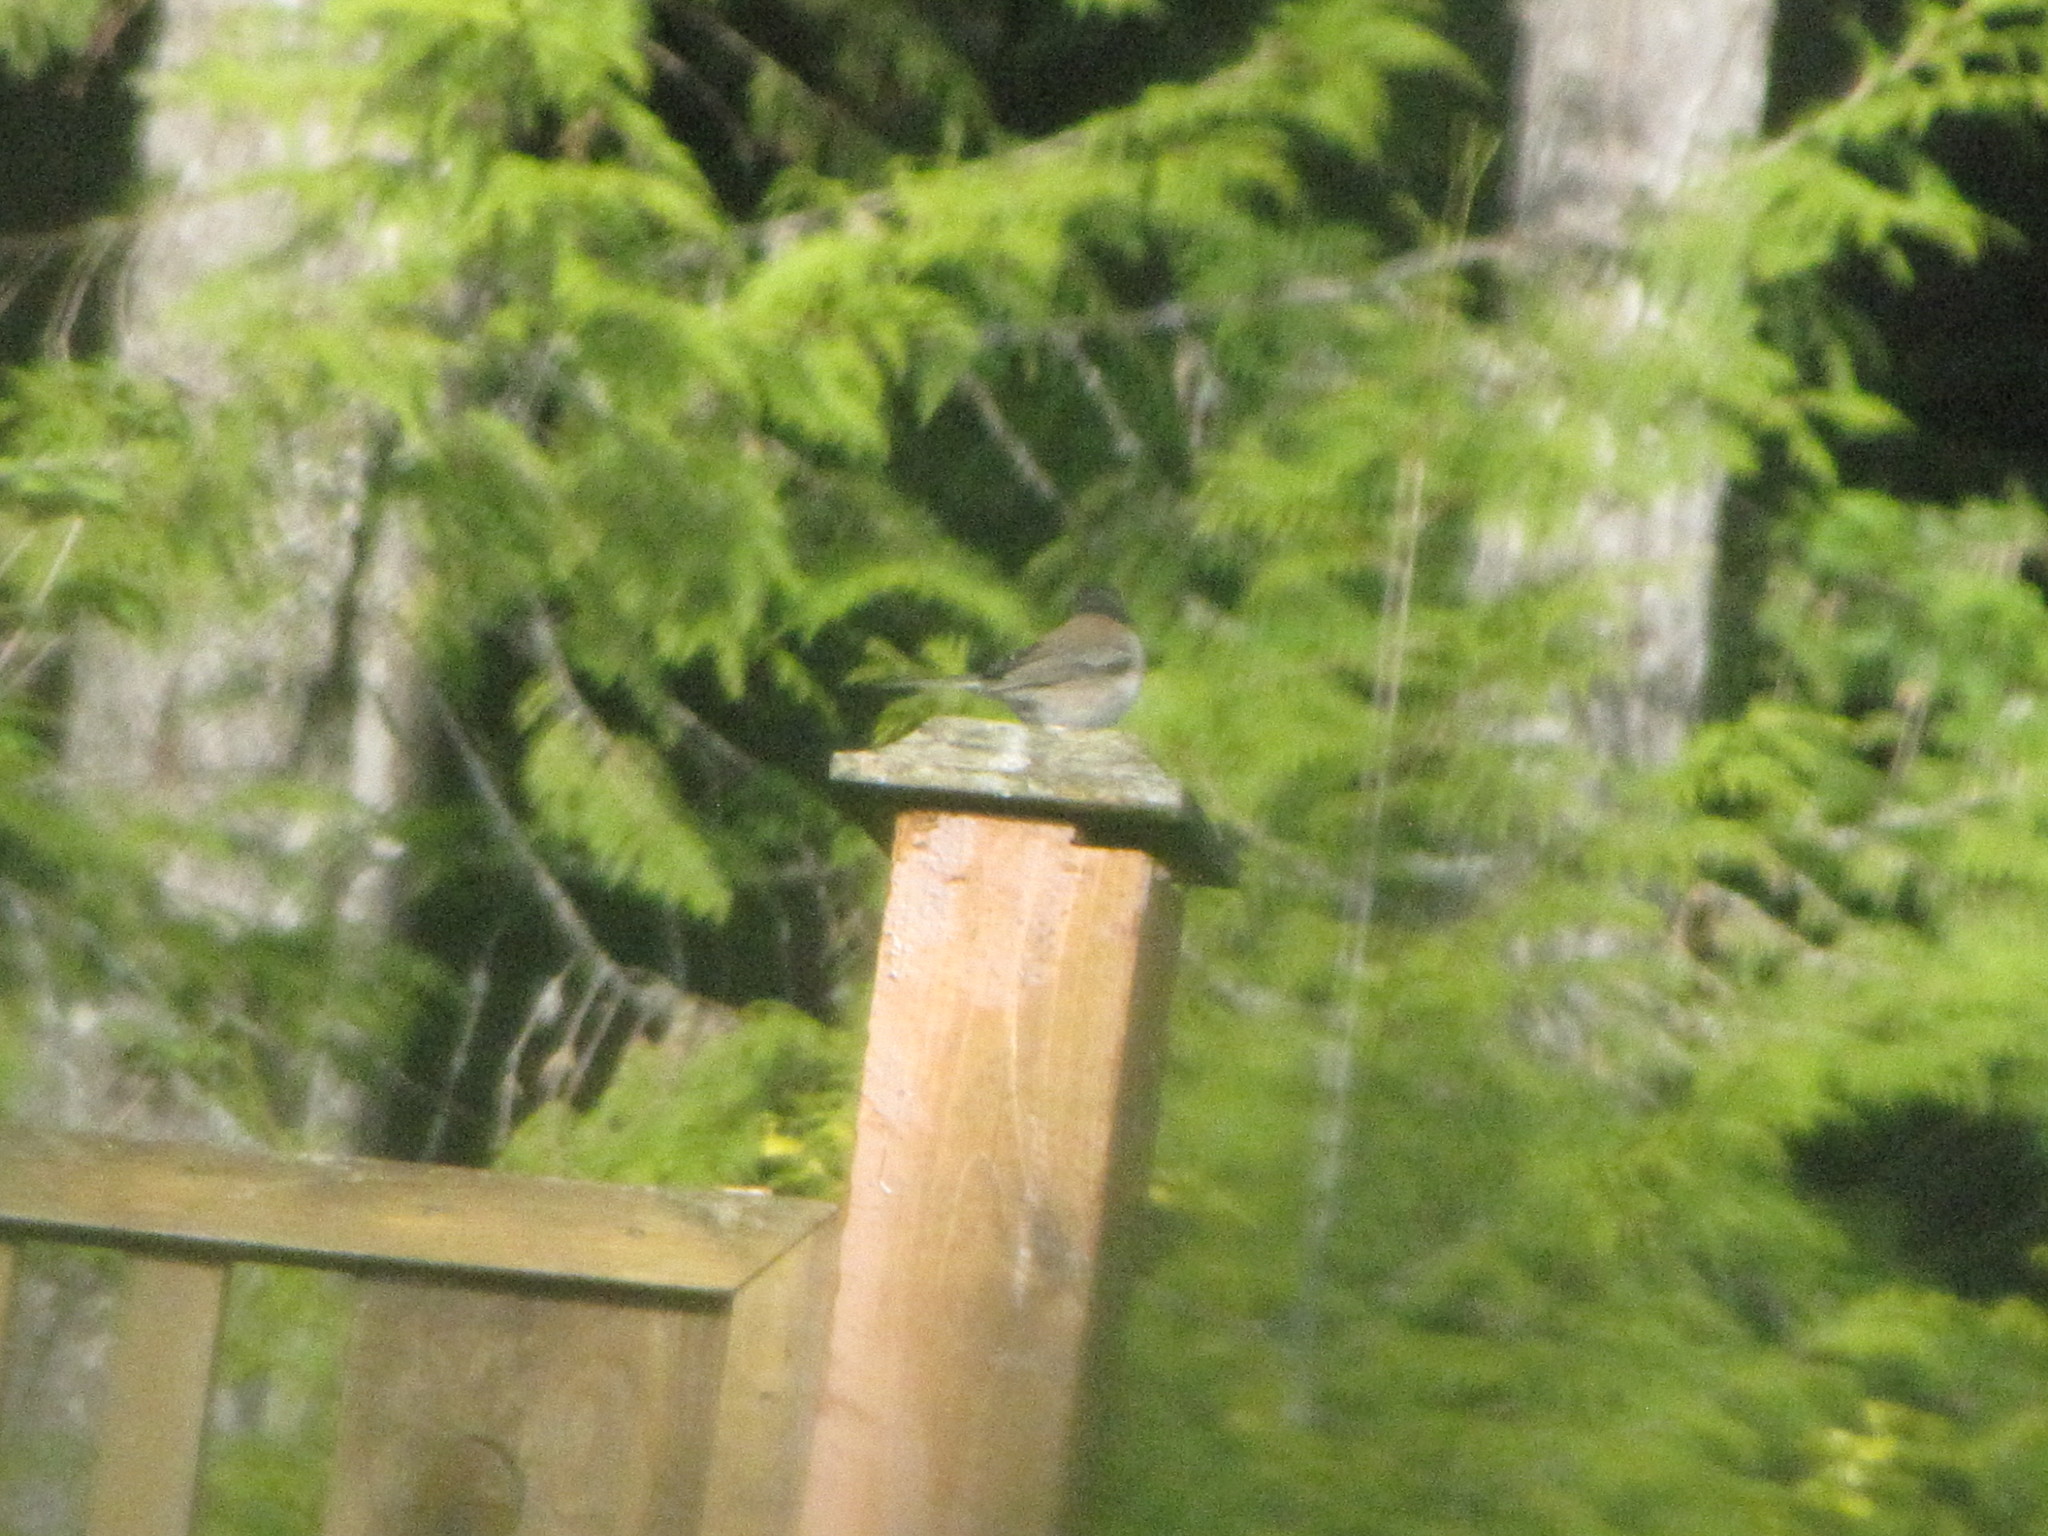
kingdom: Animalia
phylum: Chordata
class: Aves
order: Passeriformes
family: Passerellidae
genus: Junco
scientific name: Junco hyemalis
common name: Dark-eyed junco
